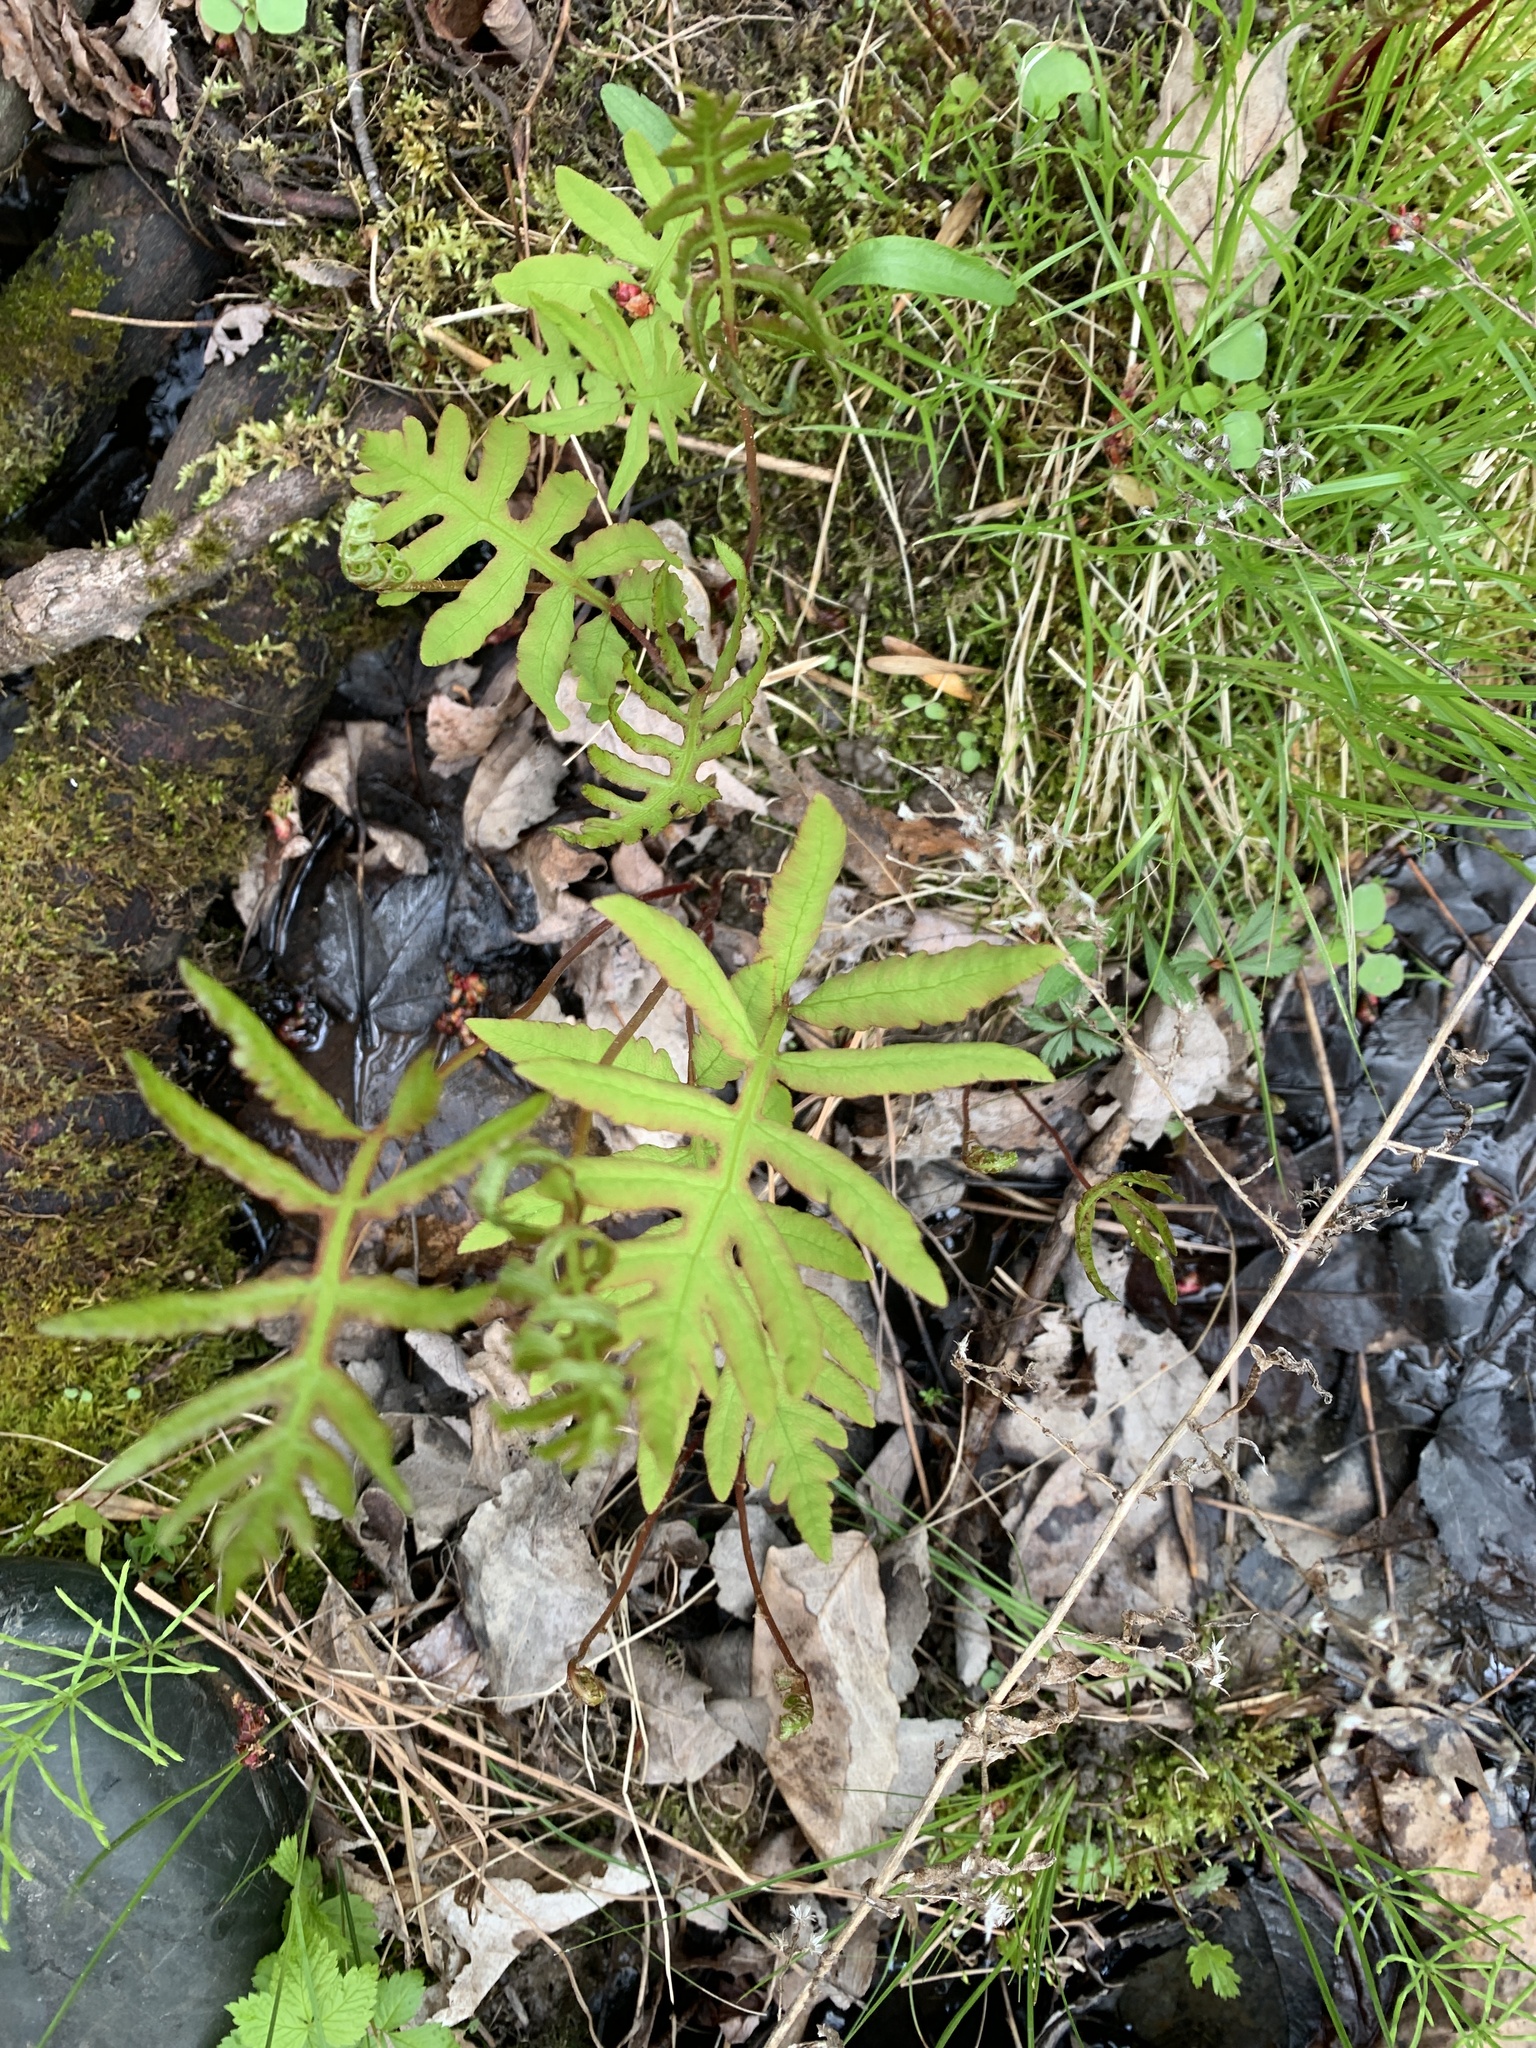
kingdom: Plantae
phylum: Tracheophyta
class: Polypodiopsida
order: Polypodiales
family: Onocleaceae
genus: Onoclea
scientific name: Onoclea sensibilis
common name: Sensitive fern
